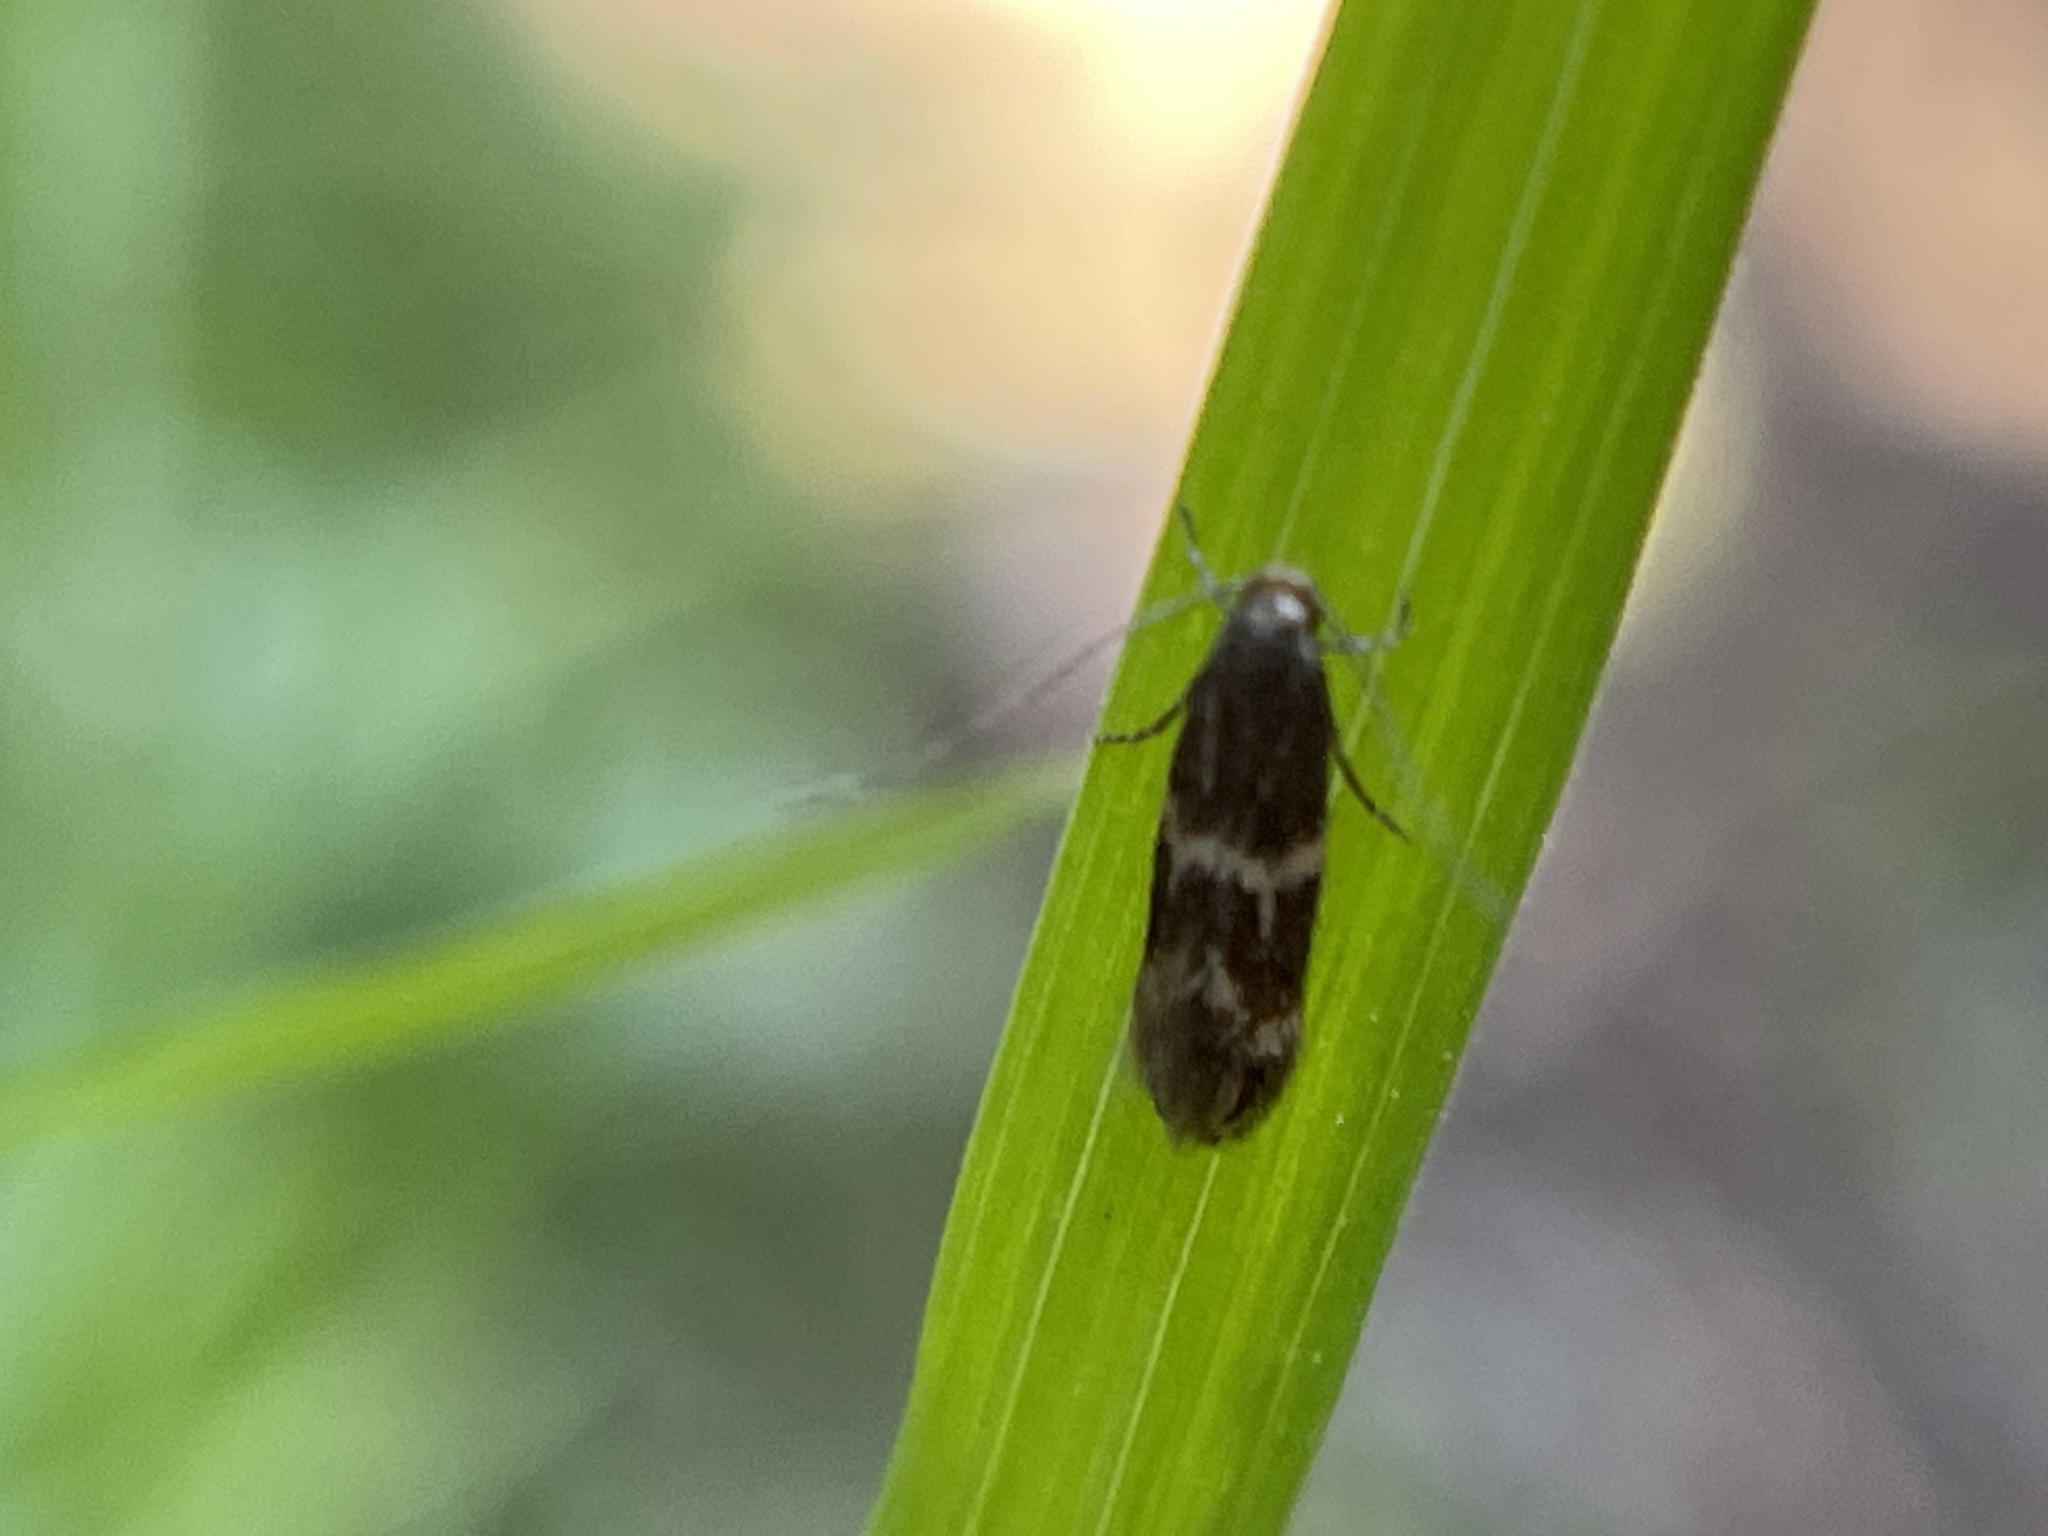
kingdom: Animalia
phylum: Arthropoda
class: Insecta
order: Lepidoptera
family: Tineidae
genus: Oinophila
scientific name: Oinophila v-flava
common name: Yellow v moth
